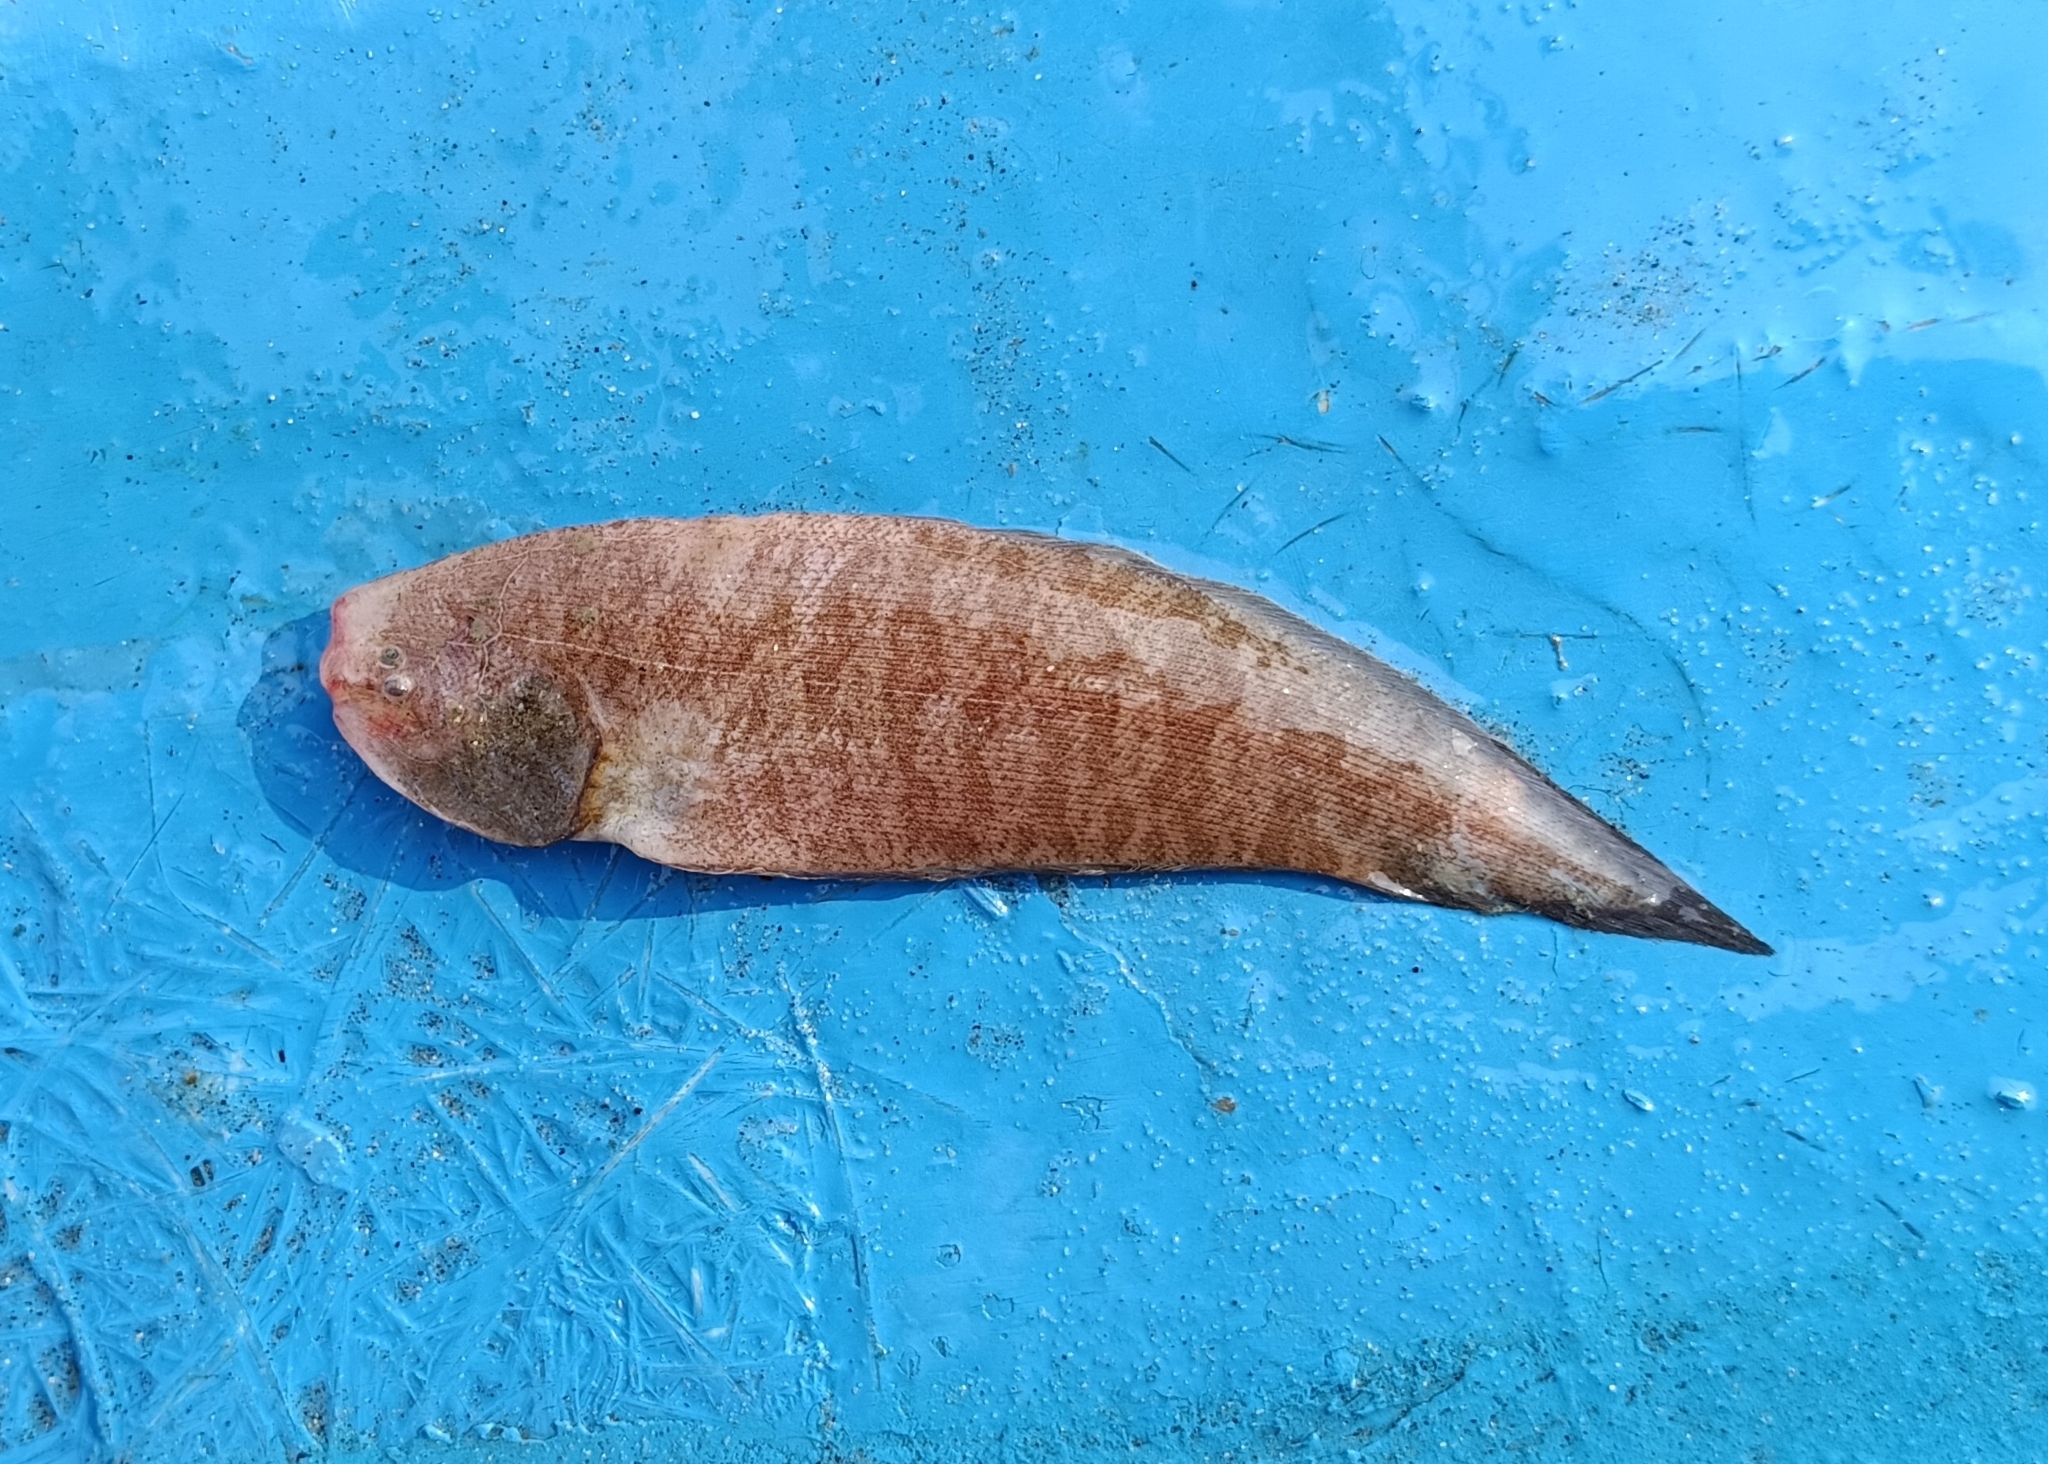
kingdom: Animalia
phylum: Chordata
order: Pleuronectiformes
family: Cynoglossidae
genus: Cynoglossus
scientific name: Cynoglossus puncticeps
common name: Speckled tonguesole
